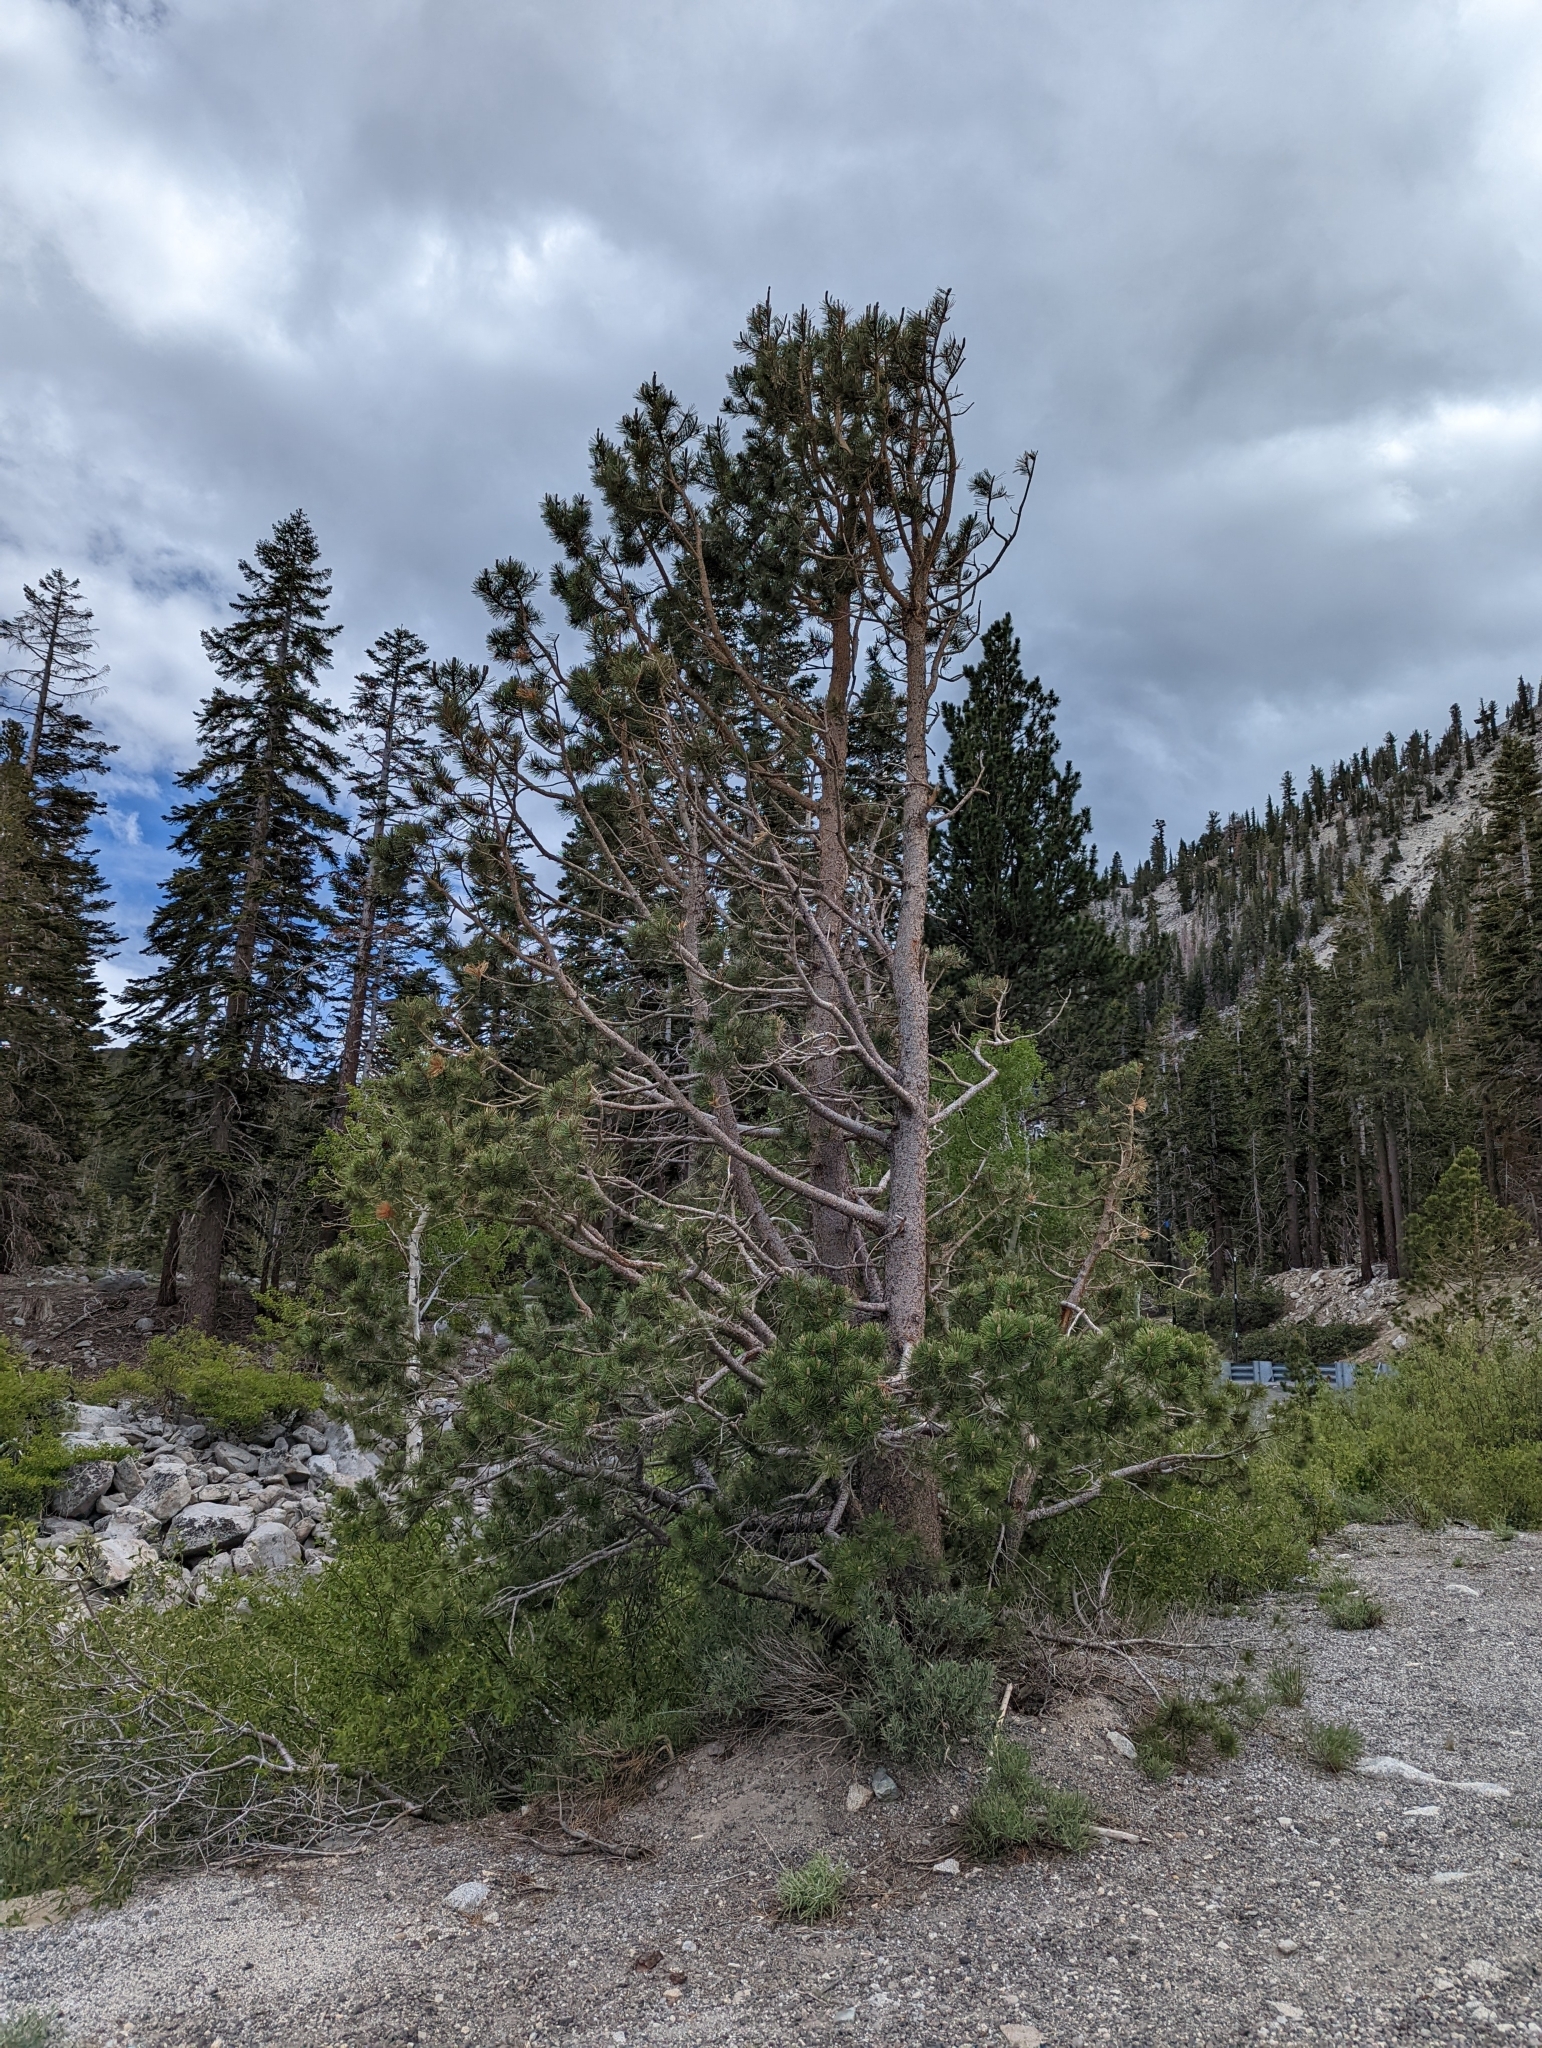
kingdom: Plantae
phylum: Tracheophyta
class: Pinopsida
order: Pinales
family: Pinaceae
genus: Pinus
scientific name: Pinus contorta
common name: Lodgepole pine
